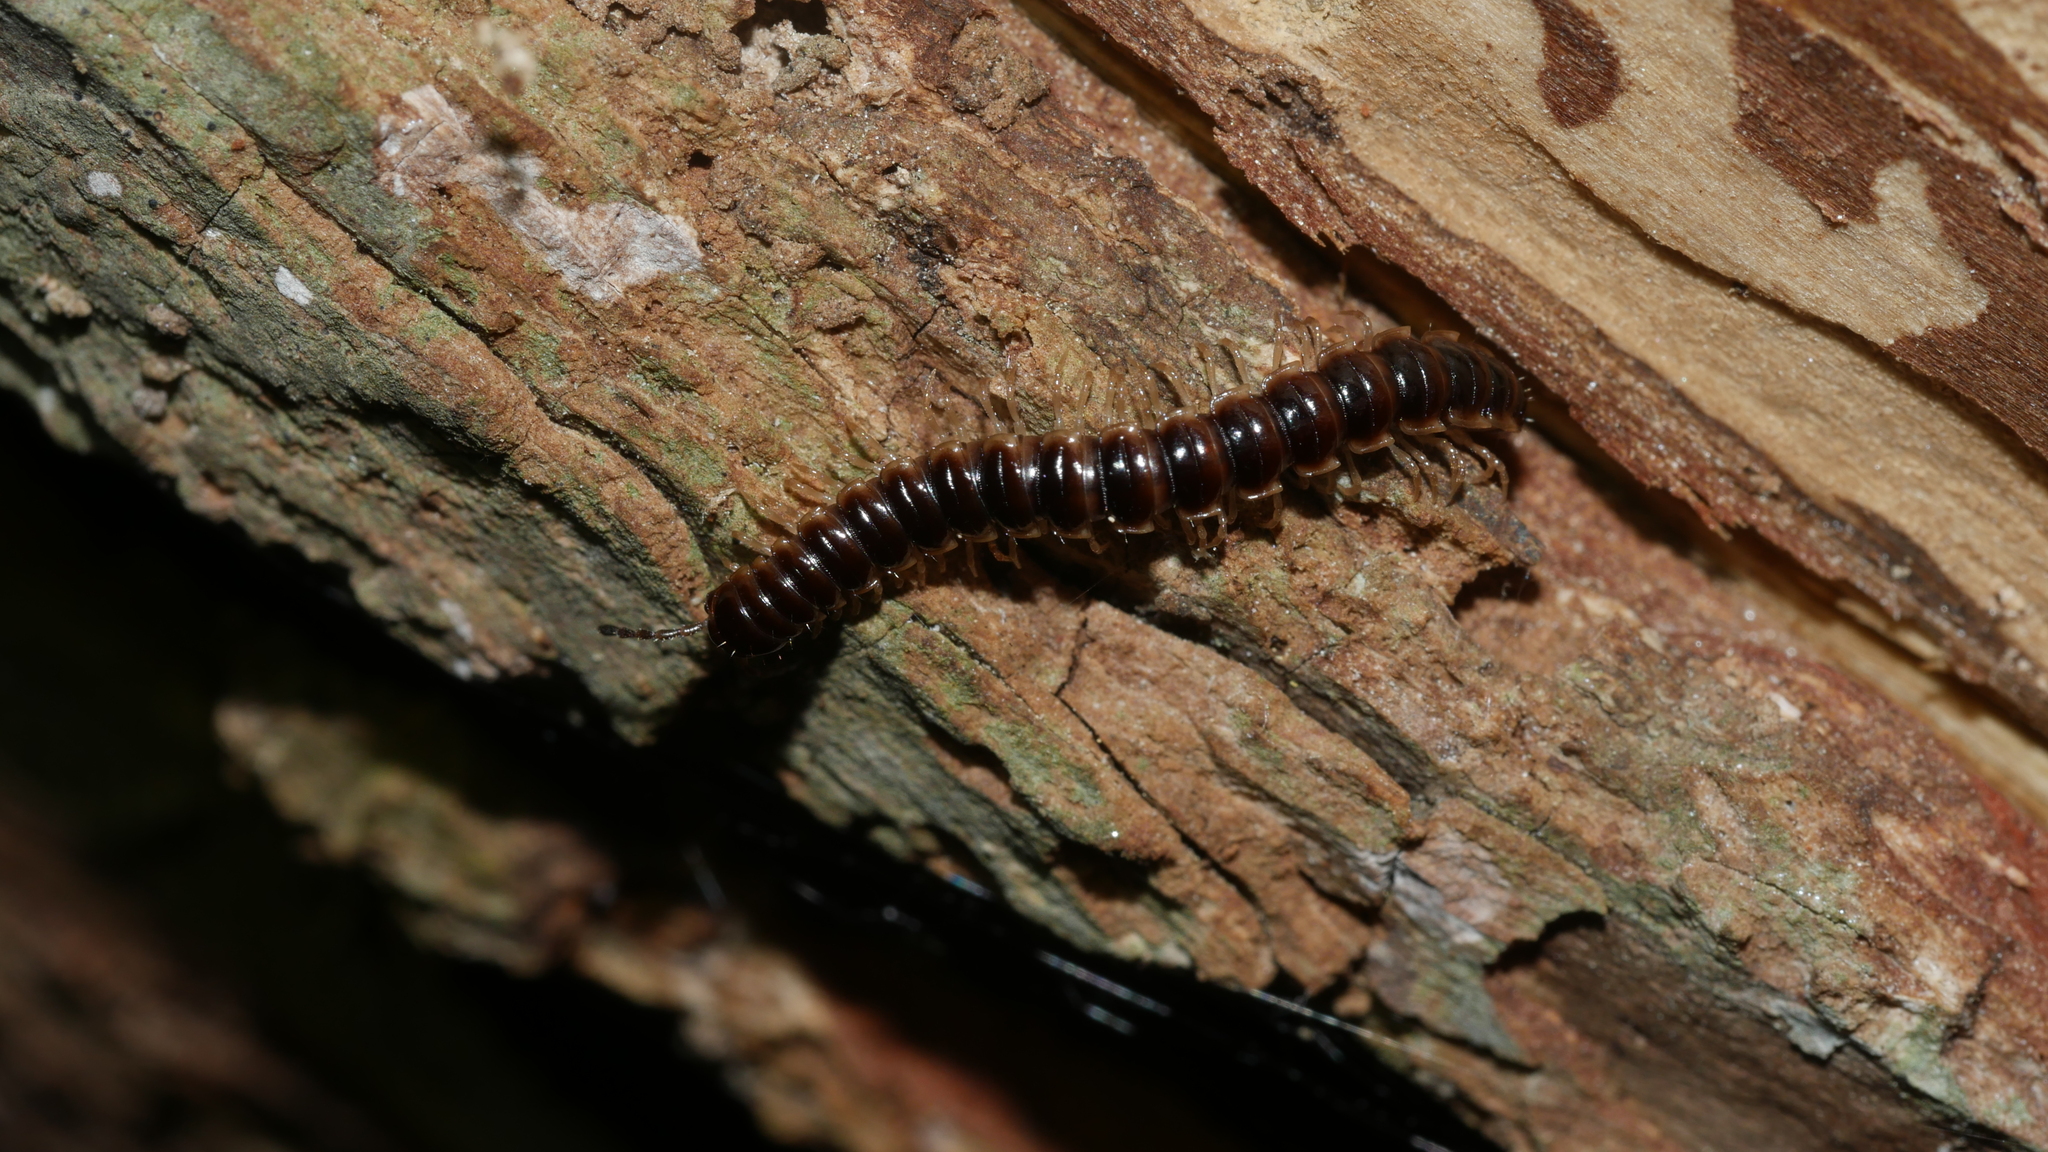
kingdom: Animalia
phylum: Arthropoda
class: Diplopoda
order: Polydesmida
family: Paradoxosomatidae
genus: Oxidus
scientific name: Oxidus gracilis
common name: Greenhouse millipede
